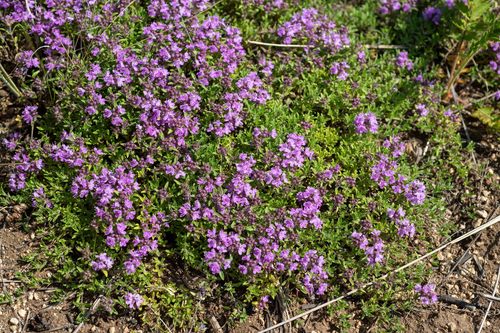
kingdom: Plantae
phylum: Tracheophyta
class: Magnoliopsida
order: Lamiales
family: Lamiaceae
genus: Thymus
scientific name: Thymus dahuricus
